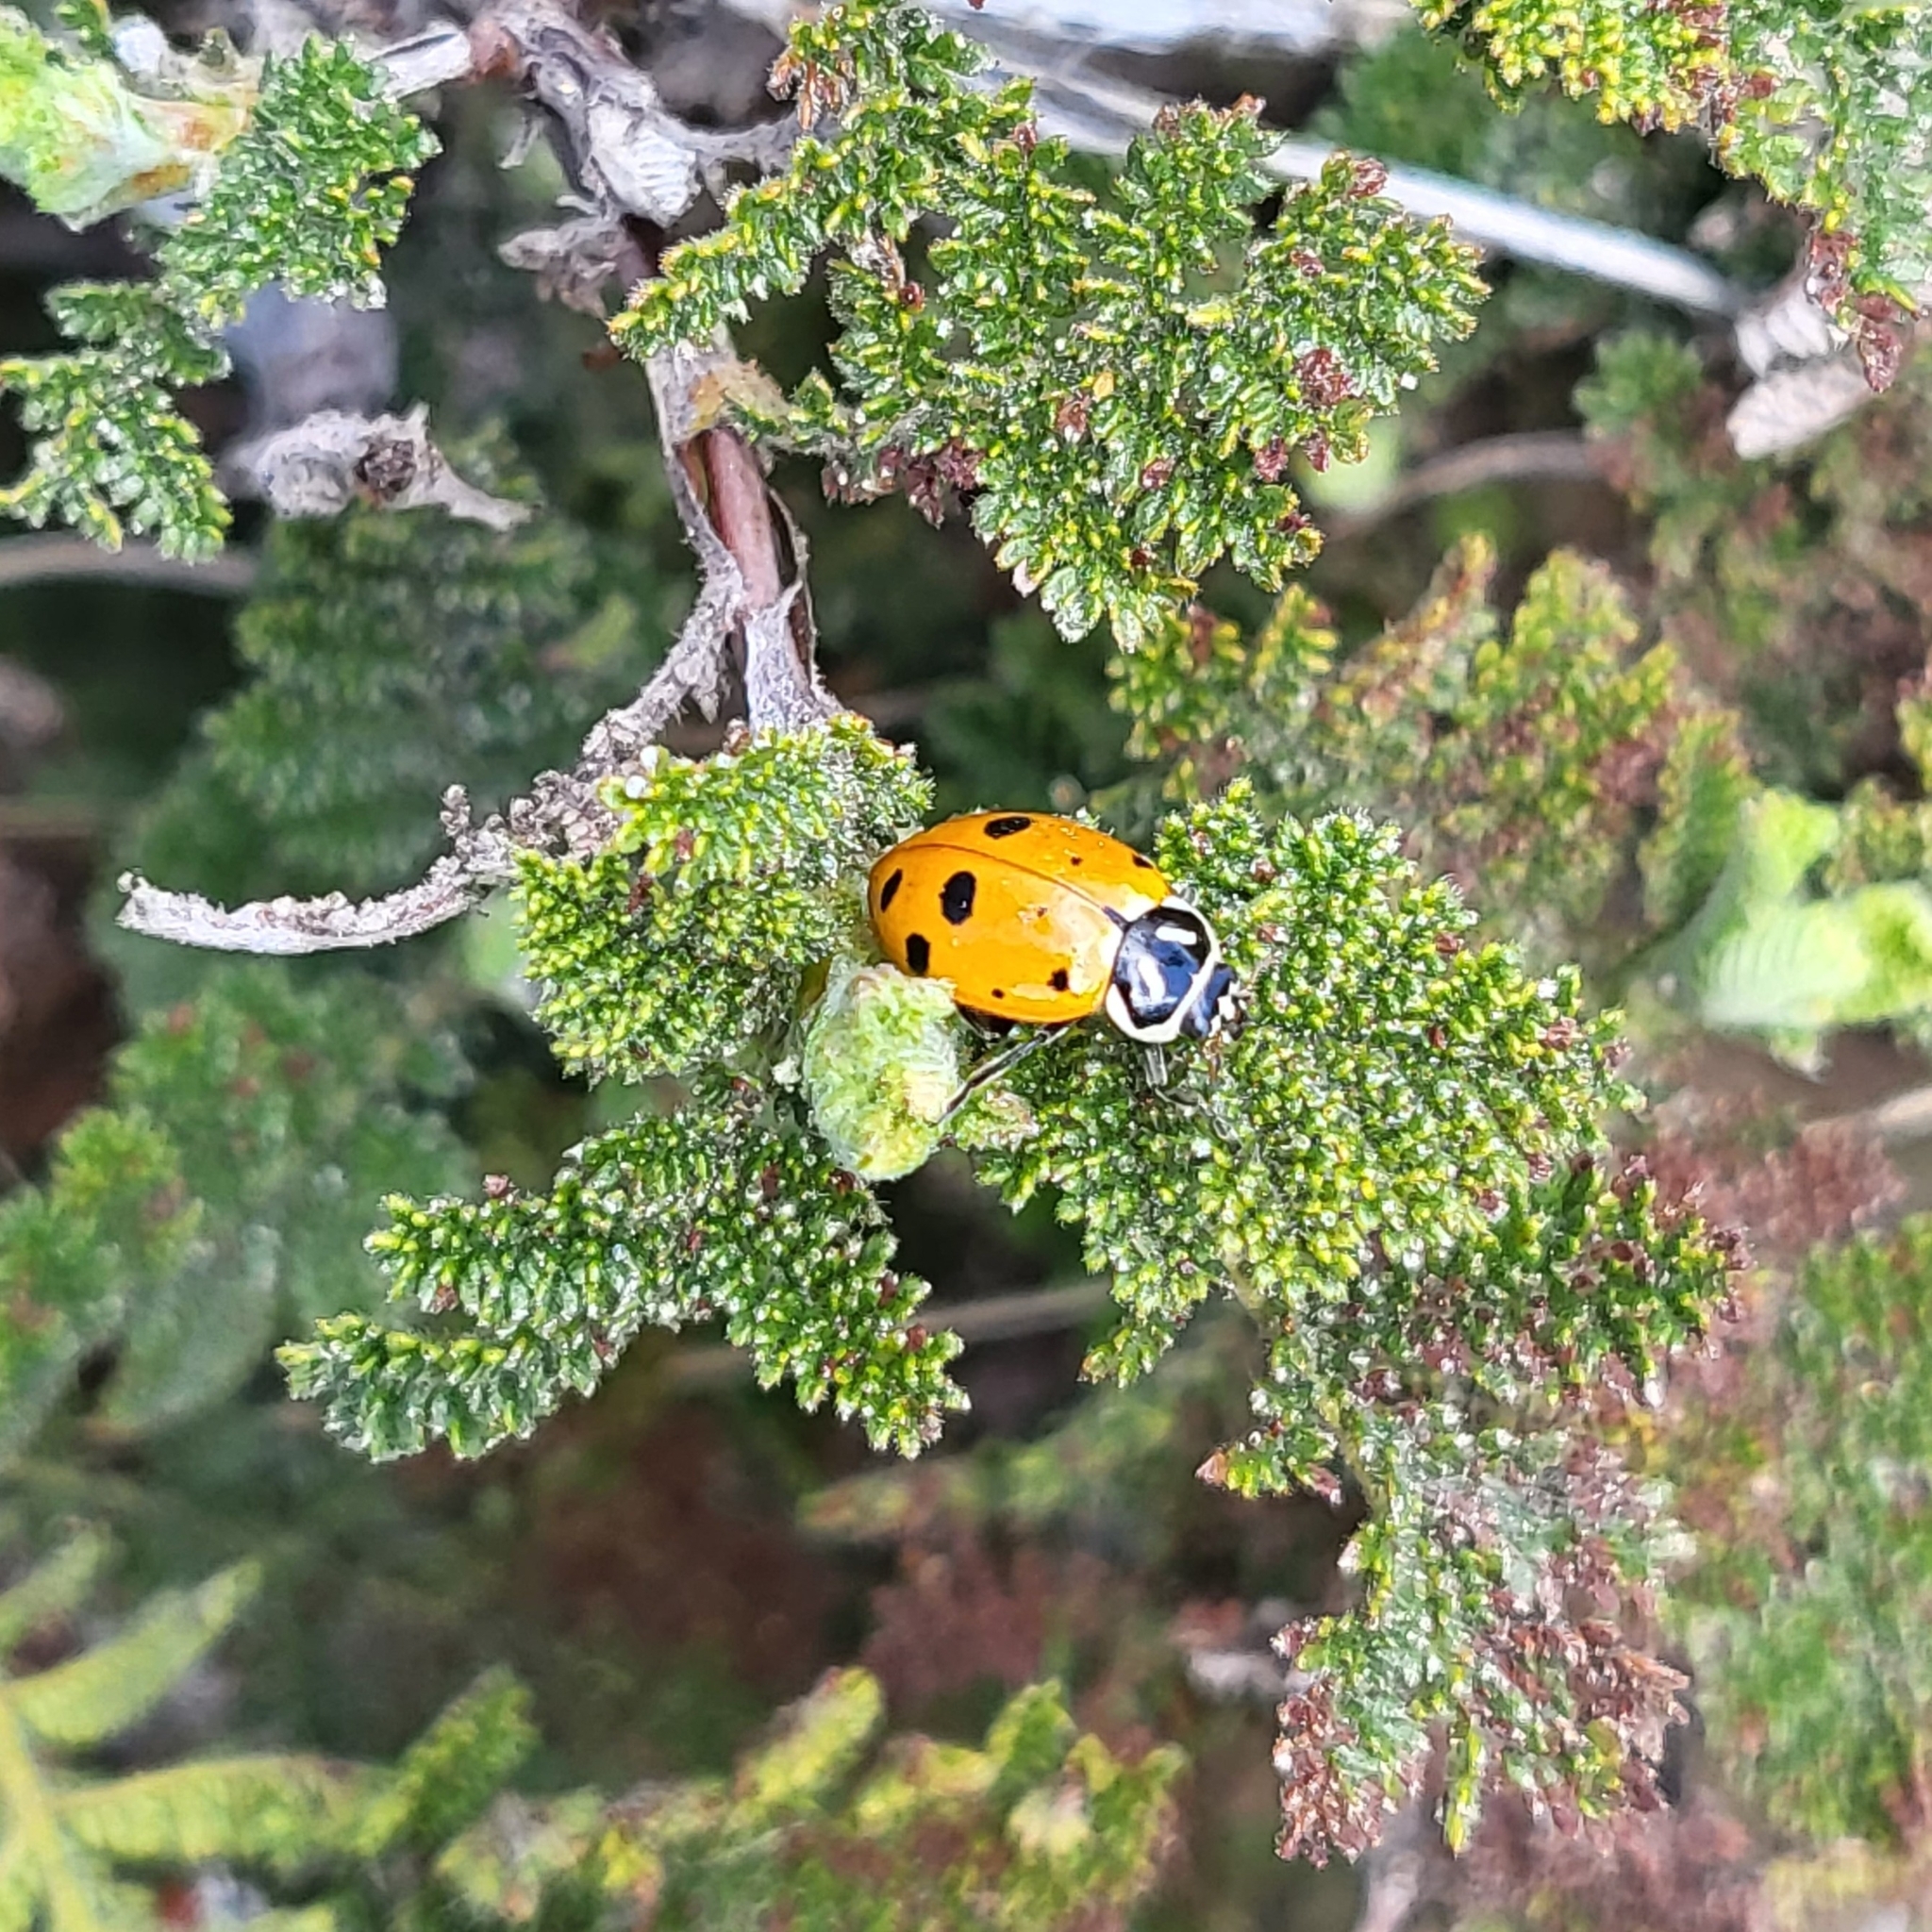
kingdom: Animalia
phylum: Arthropoda
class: Insecta
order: Coleoptera
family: Coccinellidae
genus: Hippodamia
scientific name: Hippodamia convergens
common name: Convergent lady beetle
